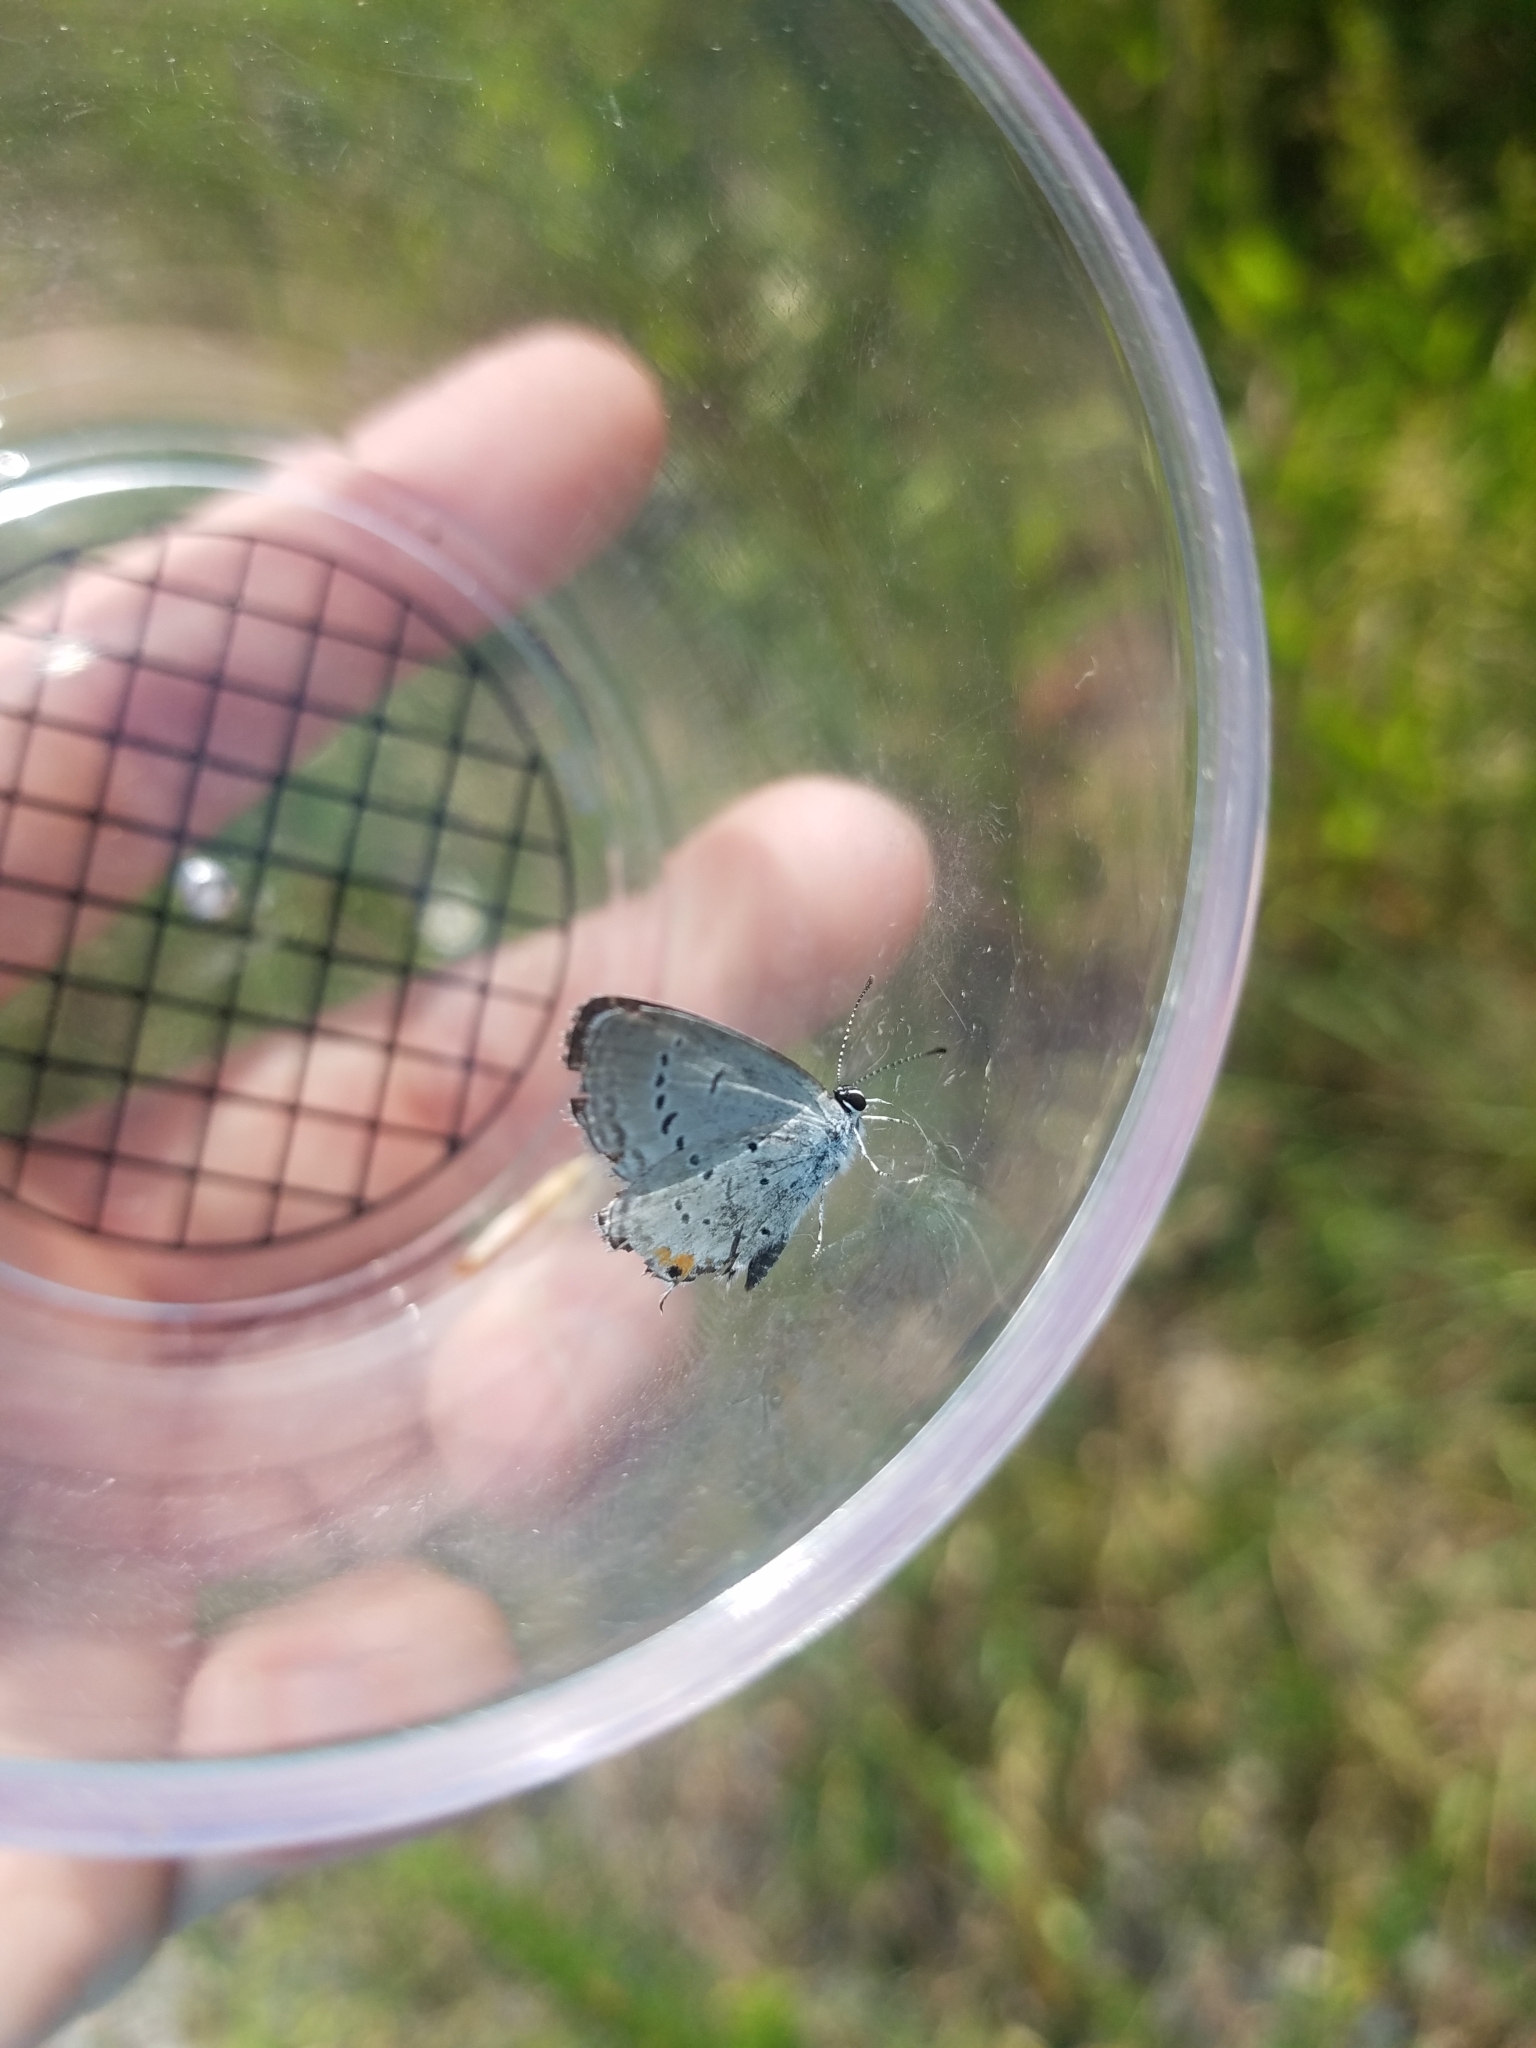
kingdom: Animalia
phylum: Arthropoda
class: Insecta
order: Lepidoptera
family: Lycaenidae
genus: Elkalyce
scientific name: Elkalyce comyntas
